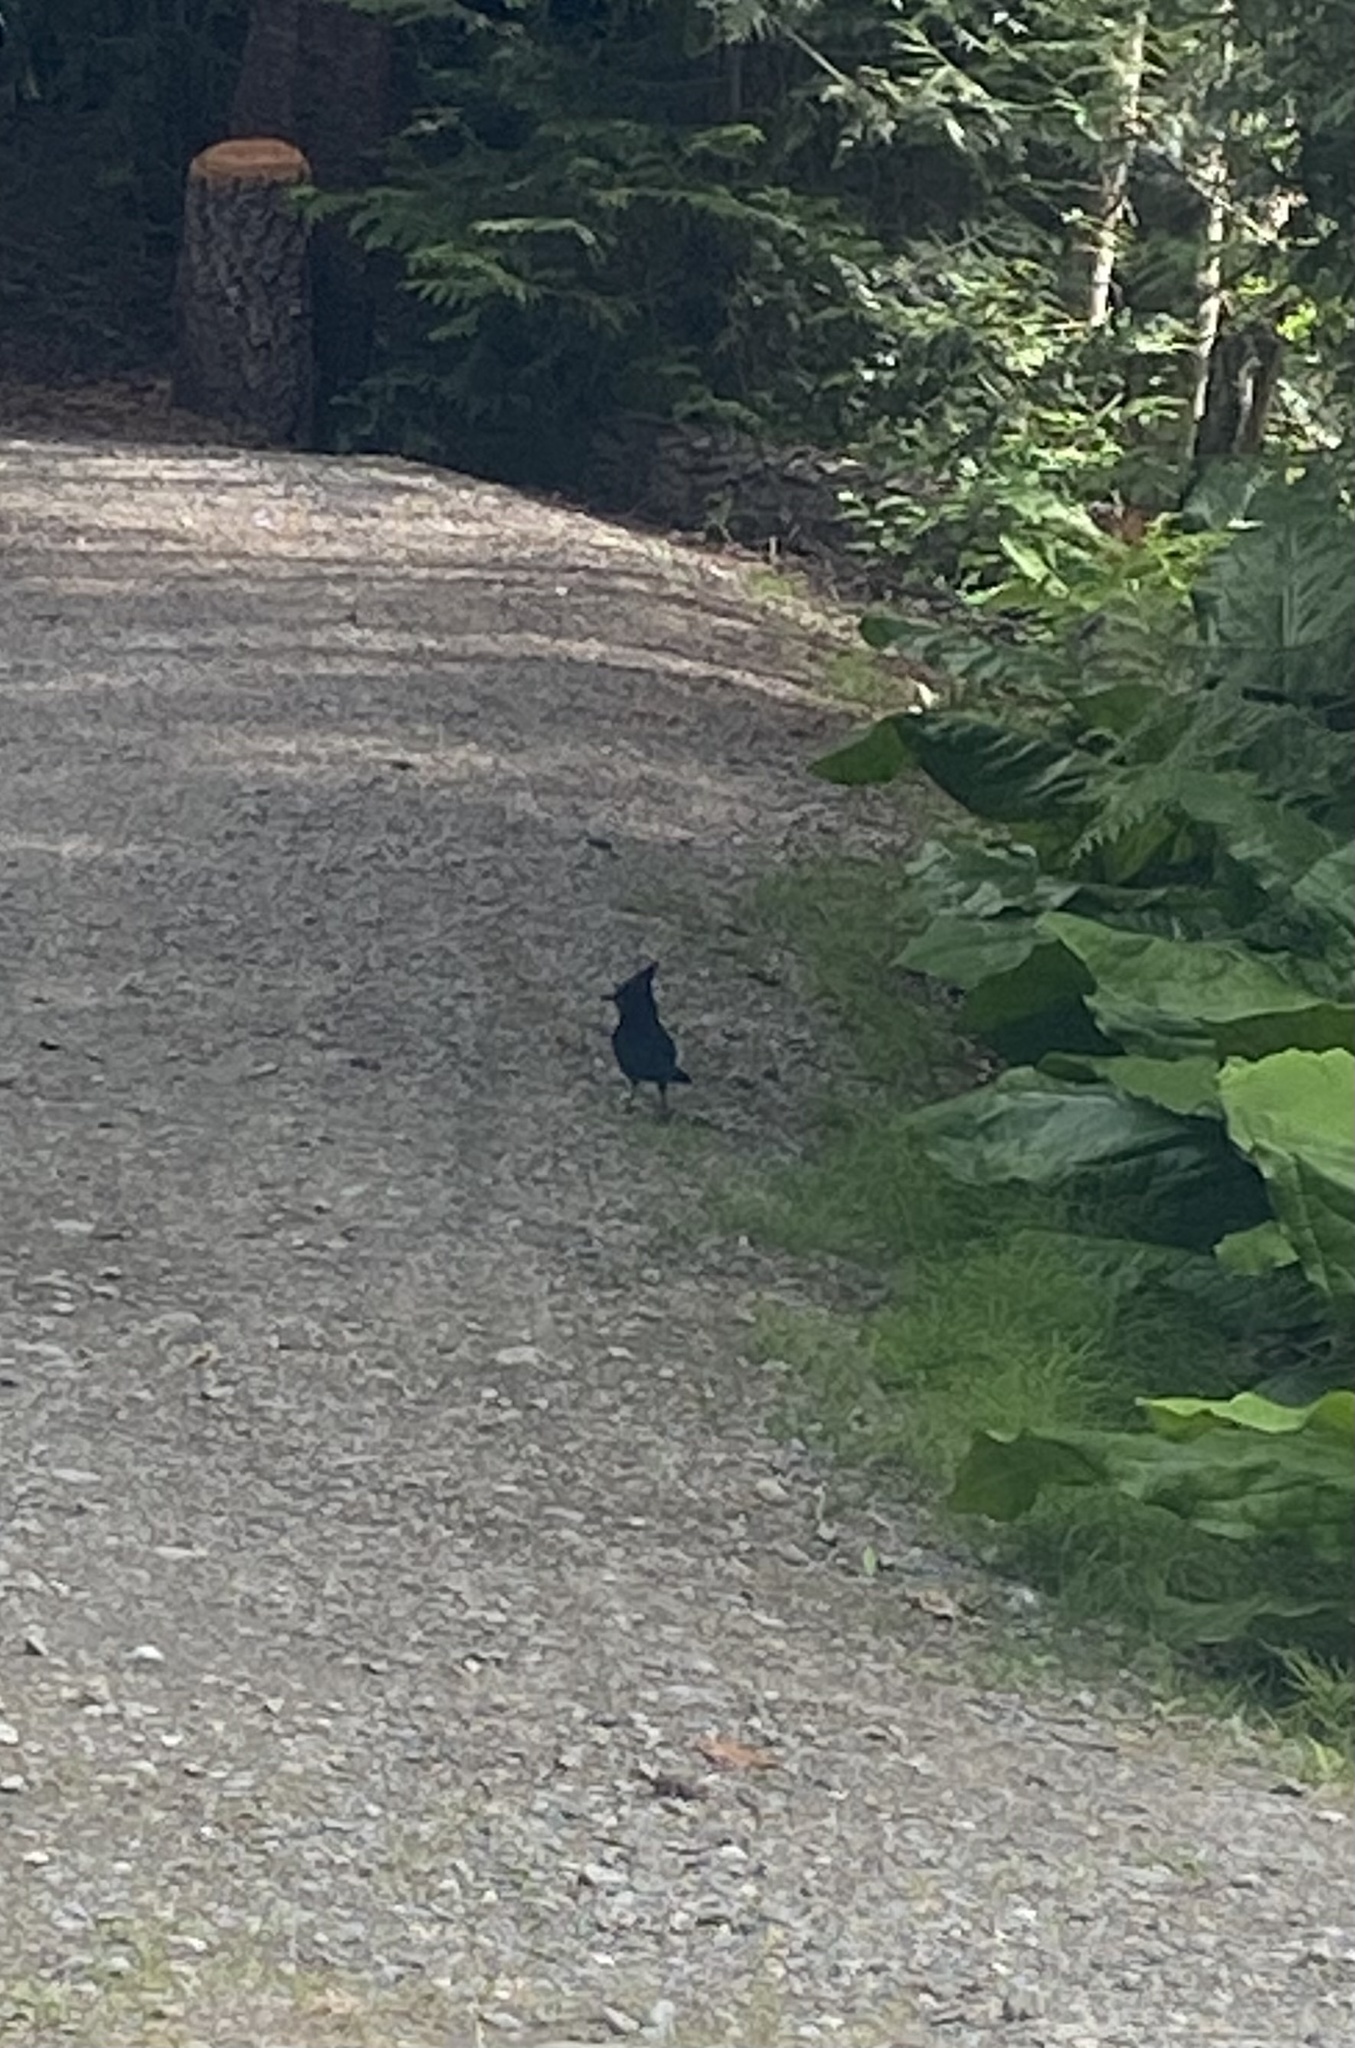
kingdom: Animalia
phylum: Chordata
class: Aves
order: Passeriformes
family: Corvidae
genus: Cyanocitta
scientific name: Cyanocitta stelleri
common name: Steller's jay
